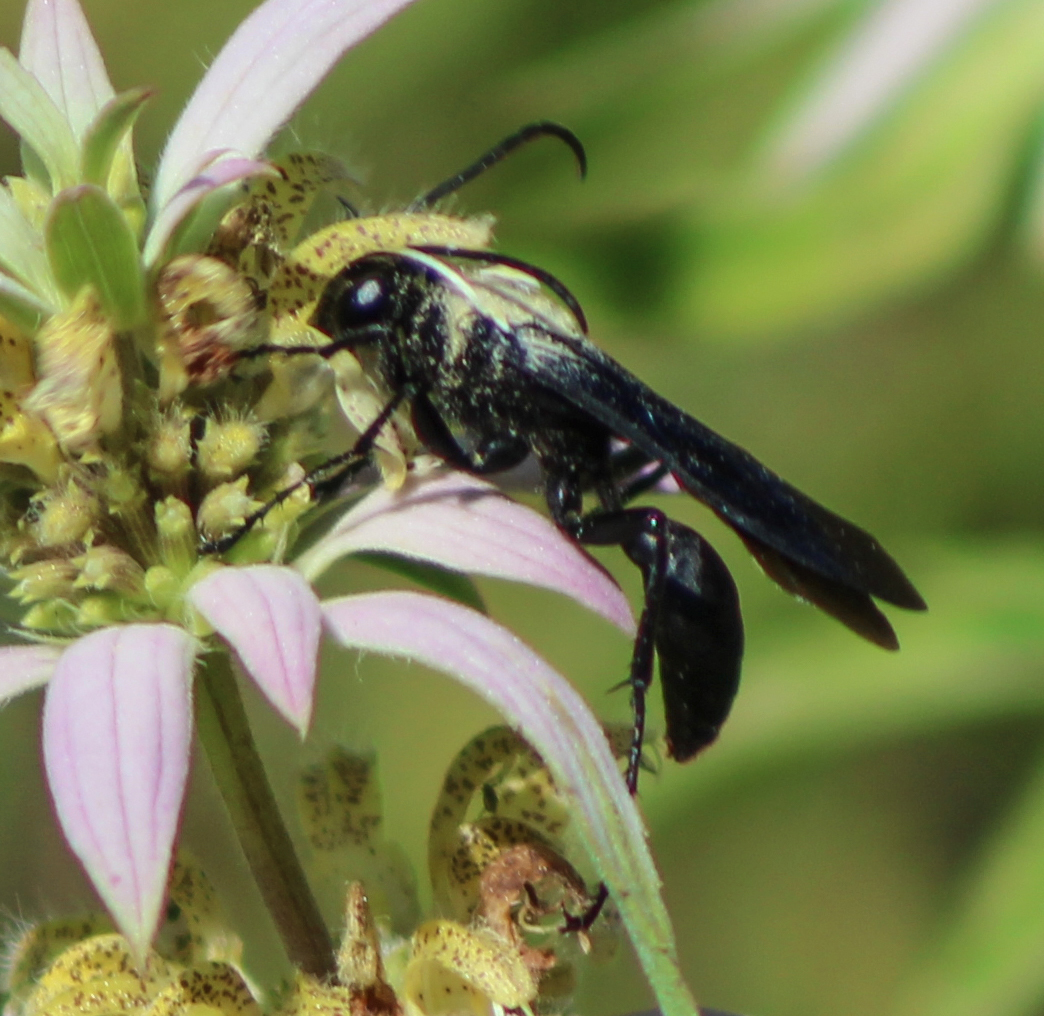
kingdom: Animalia
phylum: Arthropoda
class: Insecta
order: Hymenoptera
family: Sphecidae
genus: Sphex
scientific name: Sphex pensylvanicus
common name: Great black digger wasp
